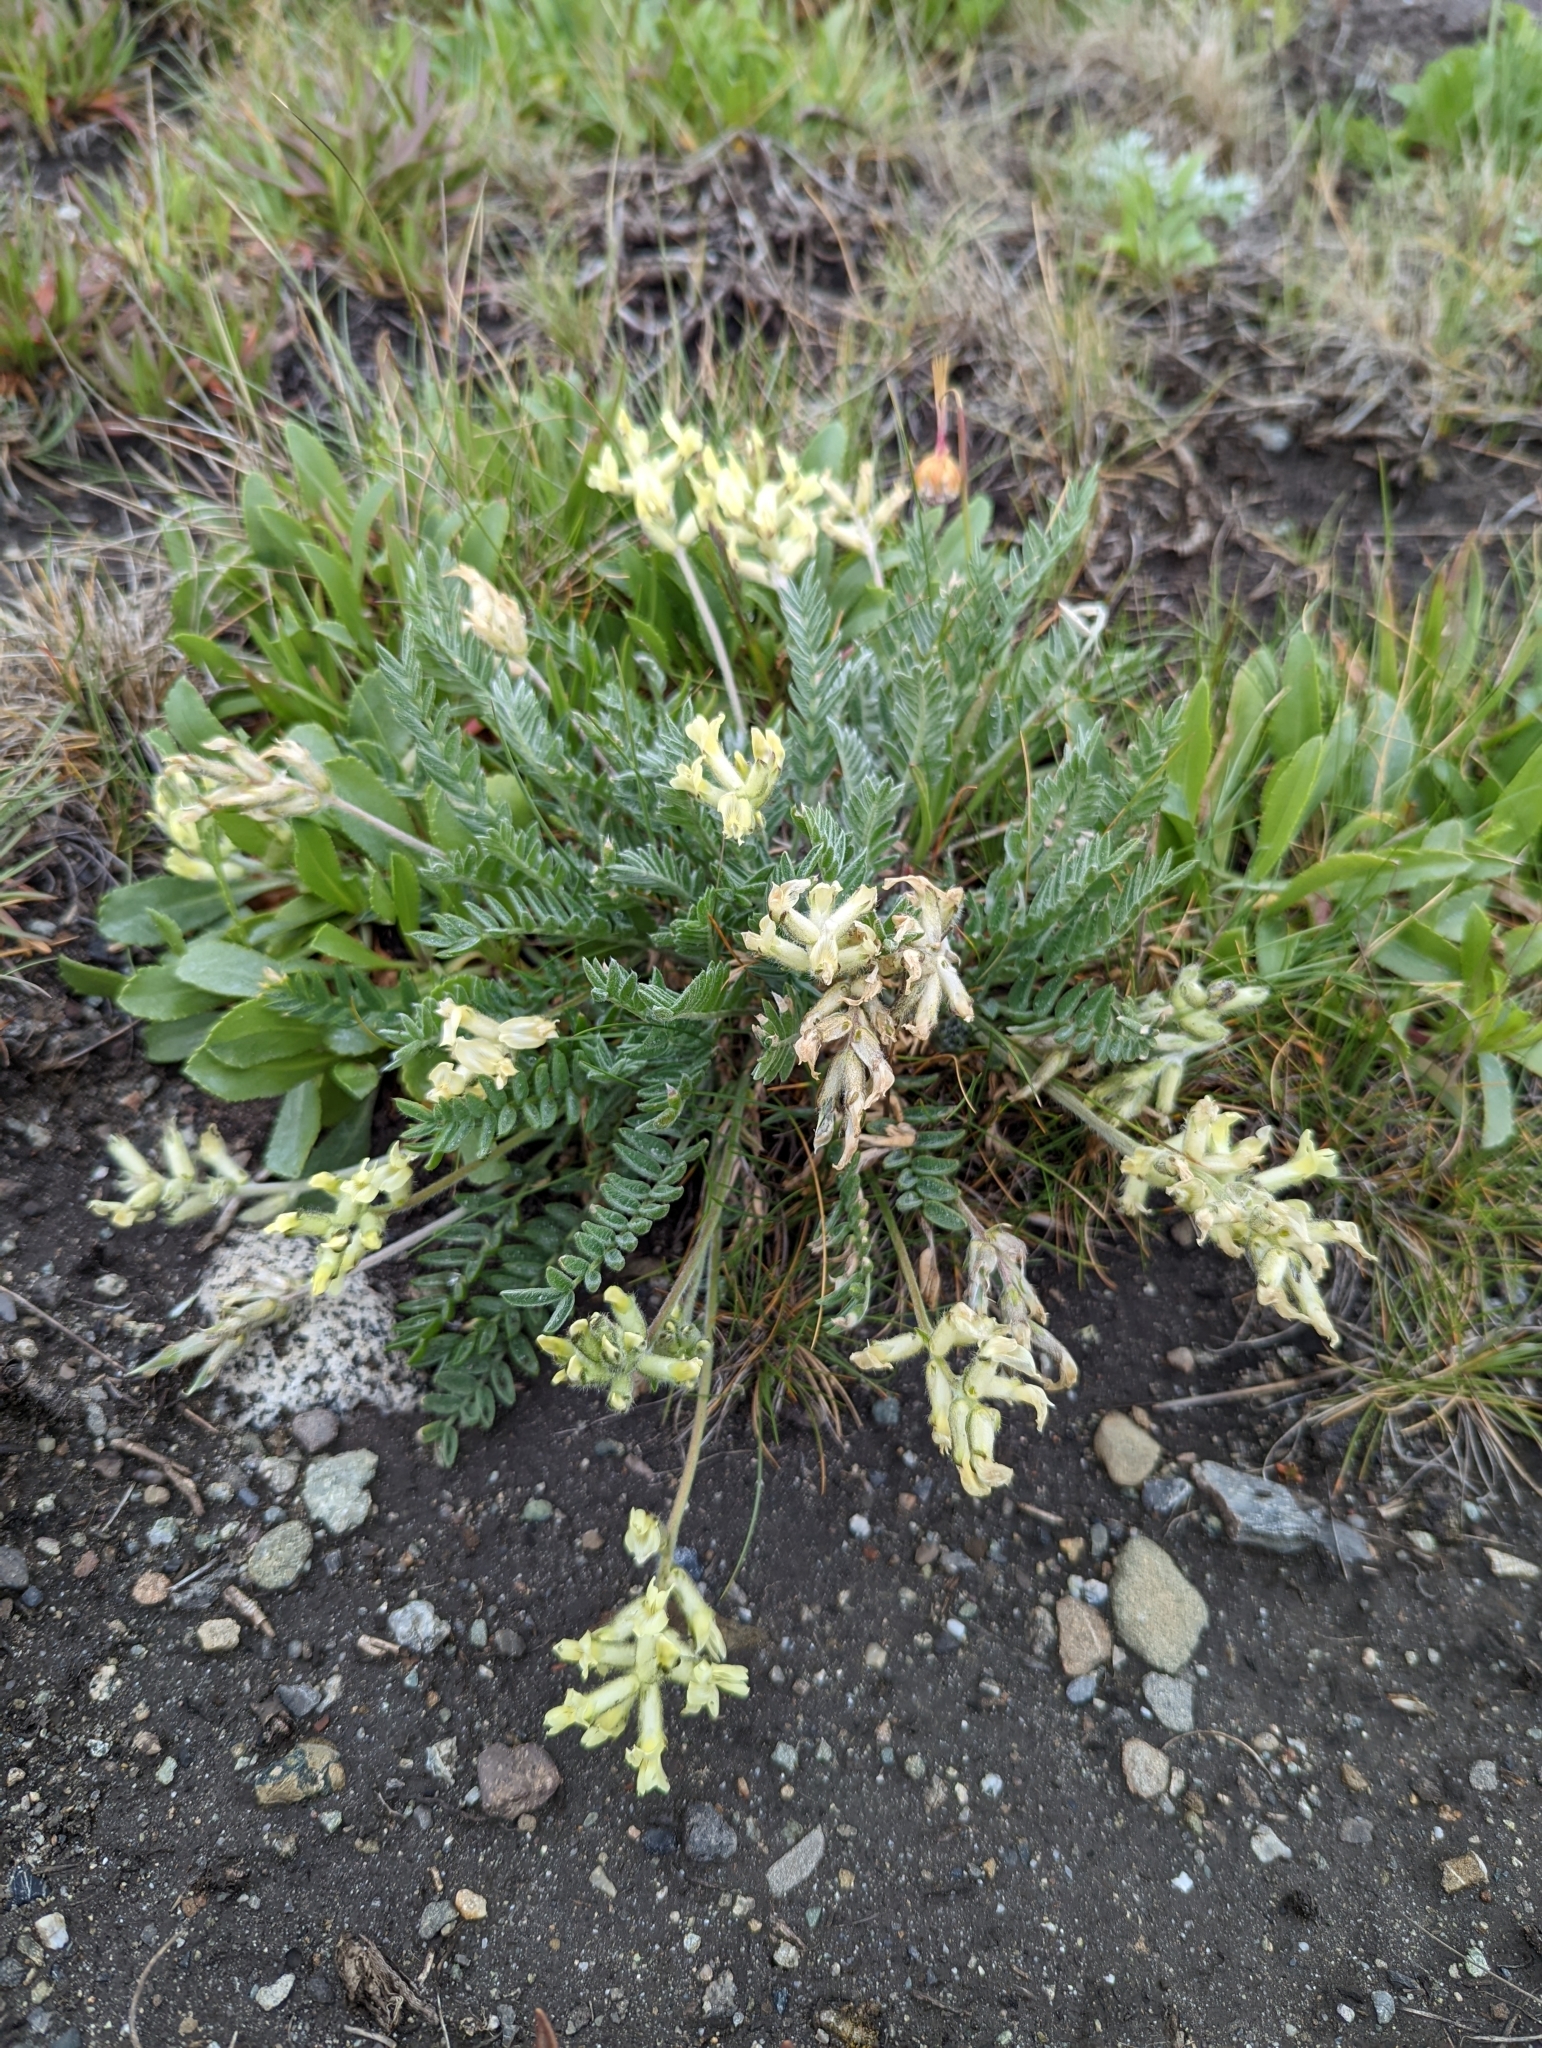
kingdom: Plantae
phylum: Tracheophyta
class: Magnoliopsida
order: Fabales
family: Fabaceae
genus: Oxytropis
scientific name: Oxytropis campestris
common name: Field locoweed
